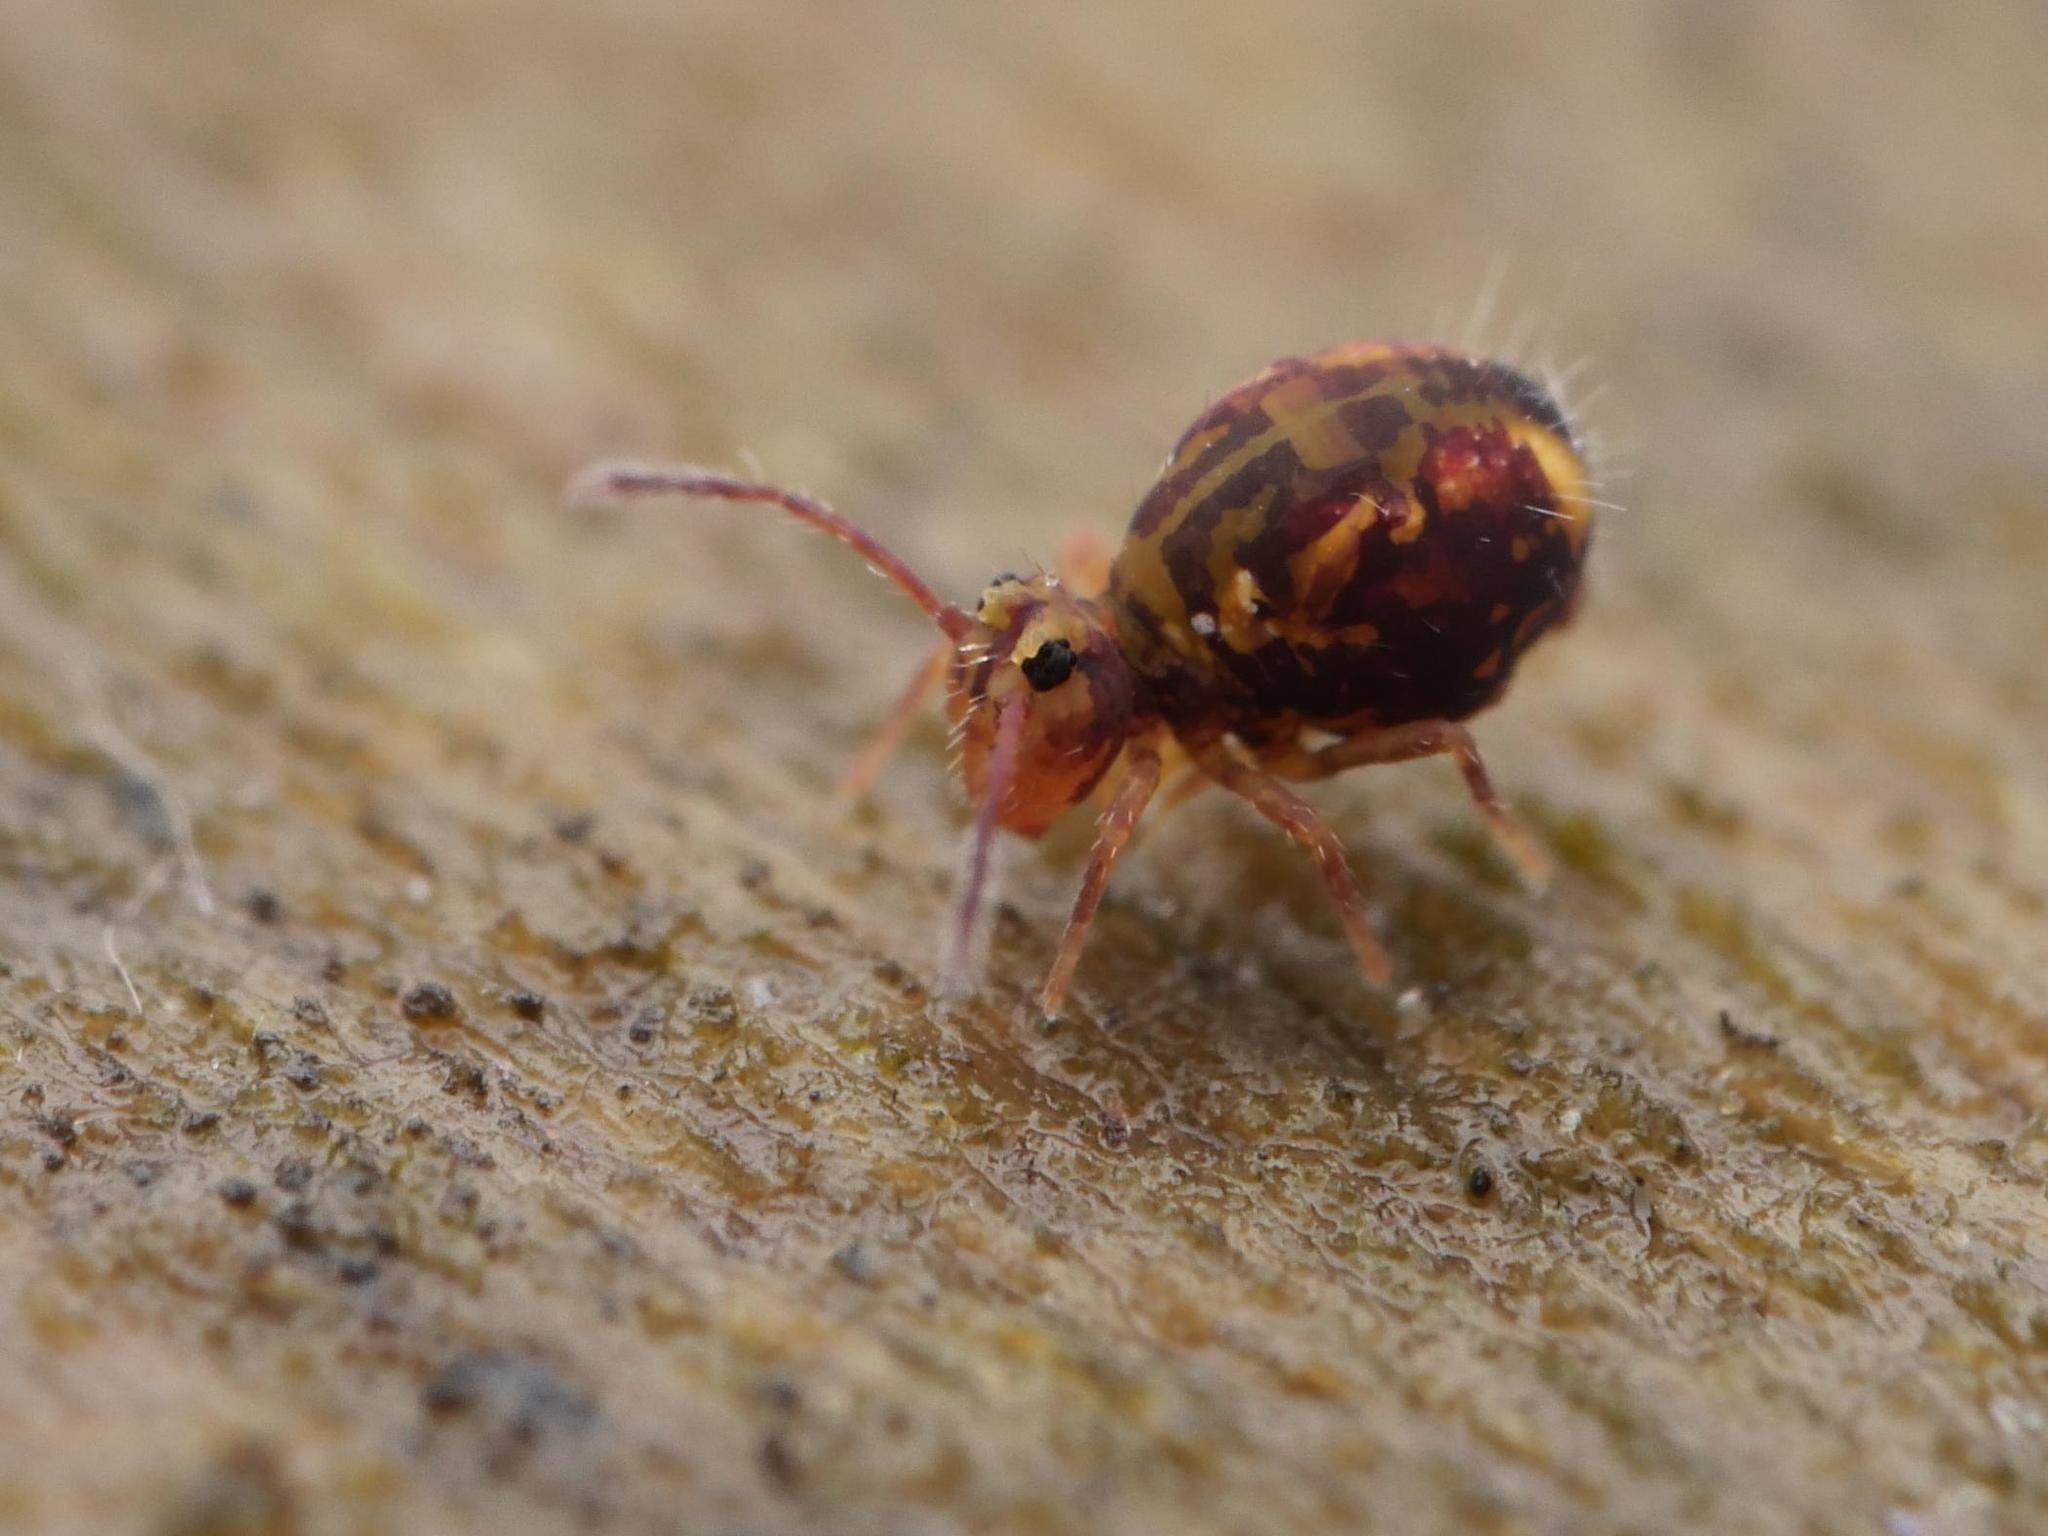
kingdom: Animalia
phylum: Arthropoda
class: Collembola
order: Symphypleona
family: Dicyrtomidae
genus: Dicyrtomina
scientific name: Dicyrtomina ornata
